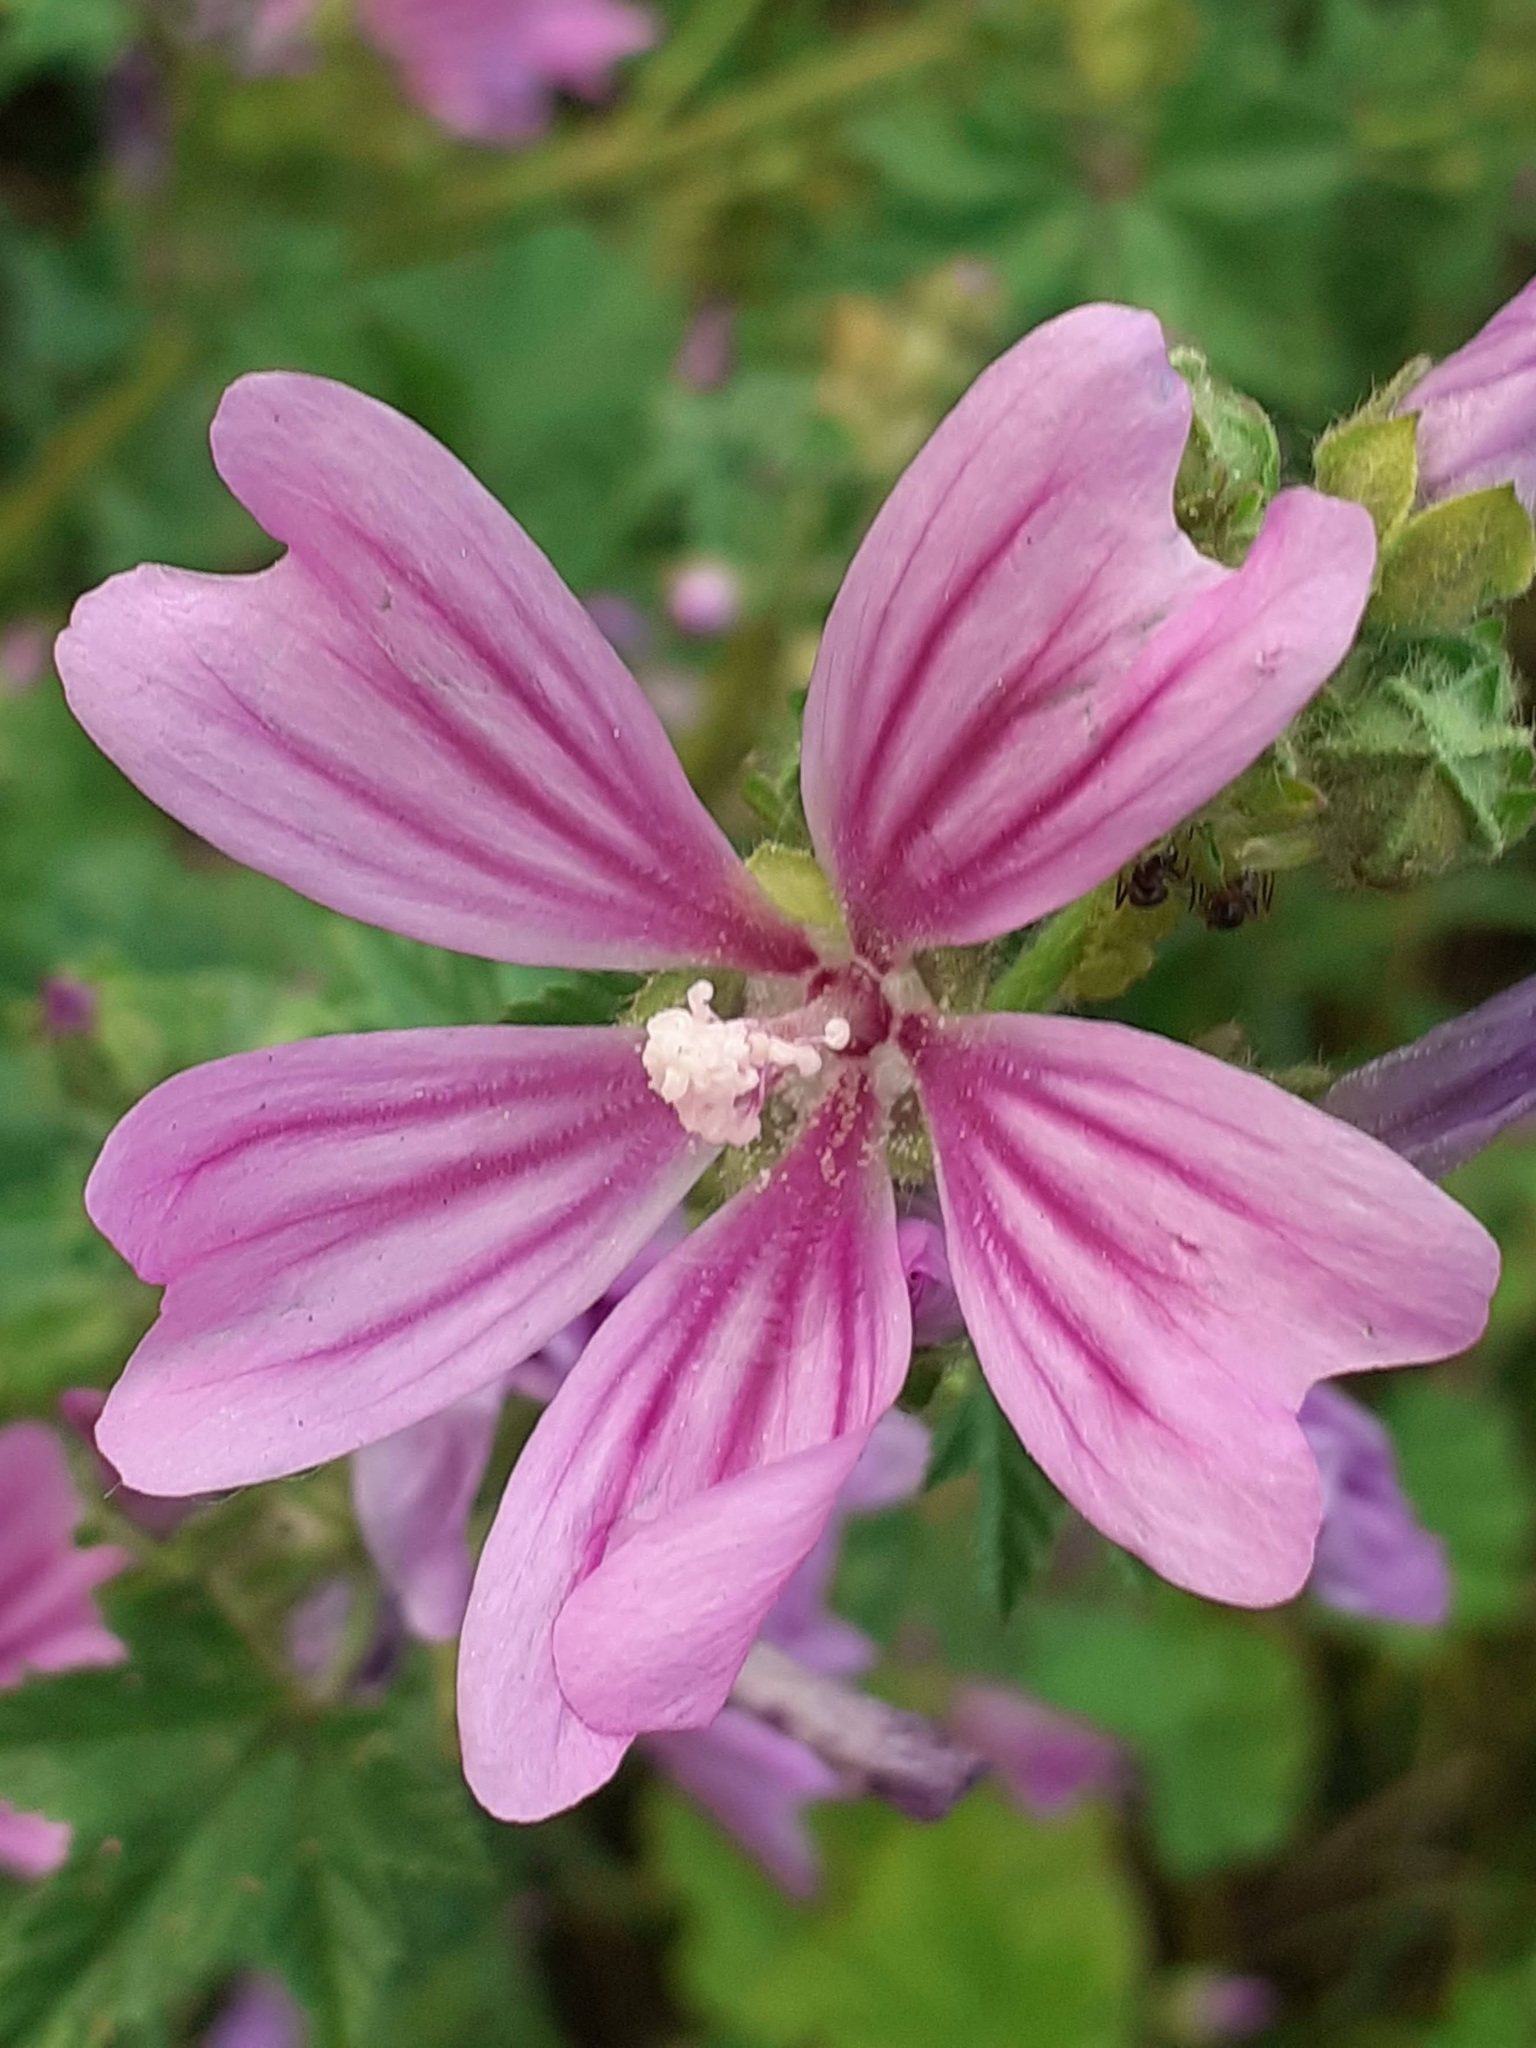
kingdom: Plantae
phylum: Tracheophyta
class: Magnoliopsida
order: Malvales
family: Malvaceae
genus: Malva
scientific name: Malva sylvestris
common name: Common mallow
